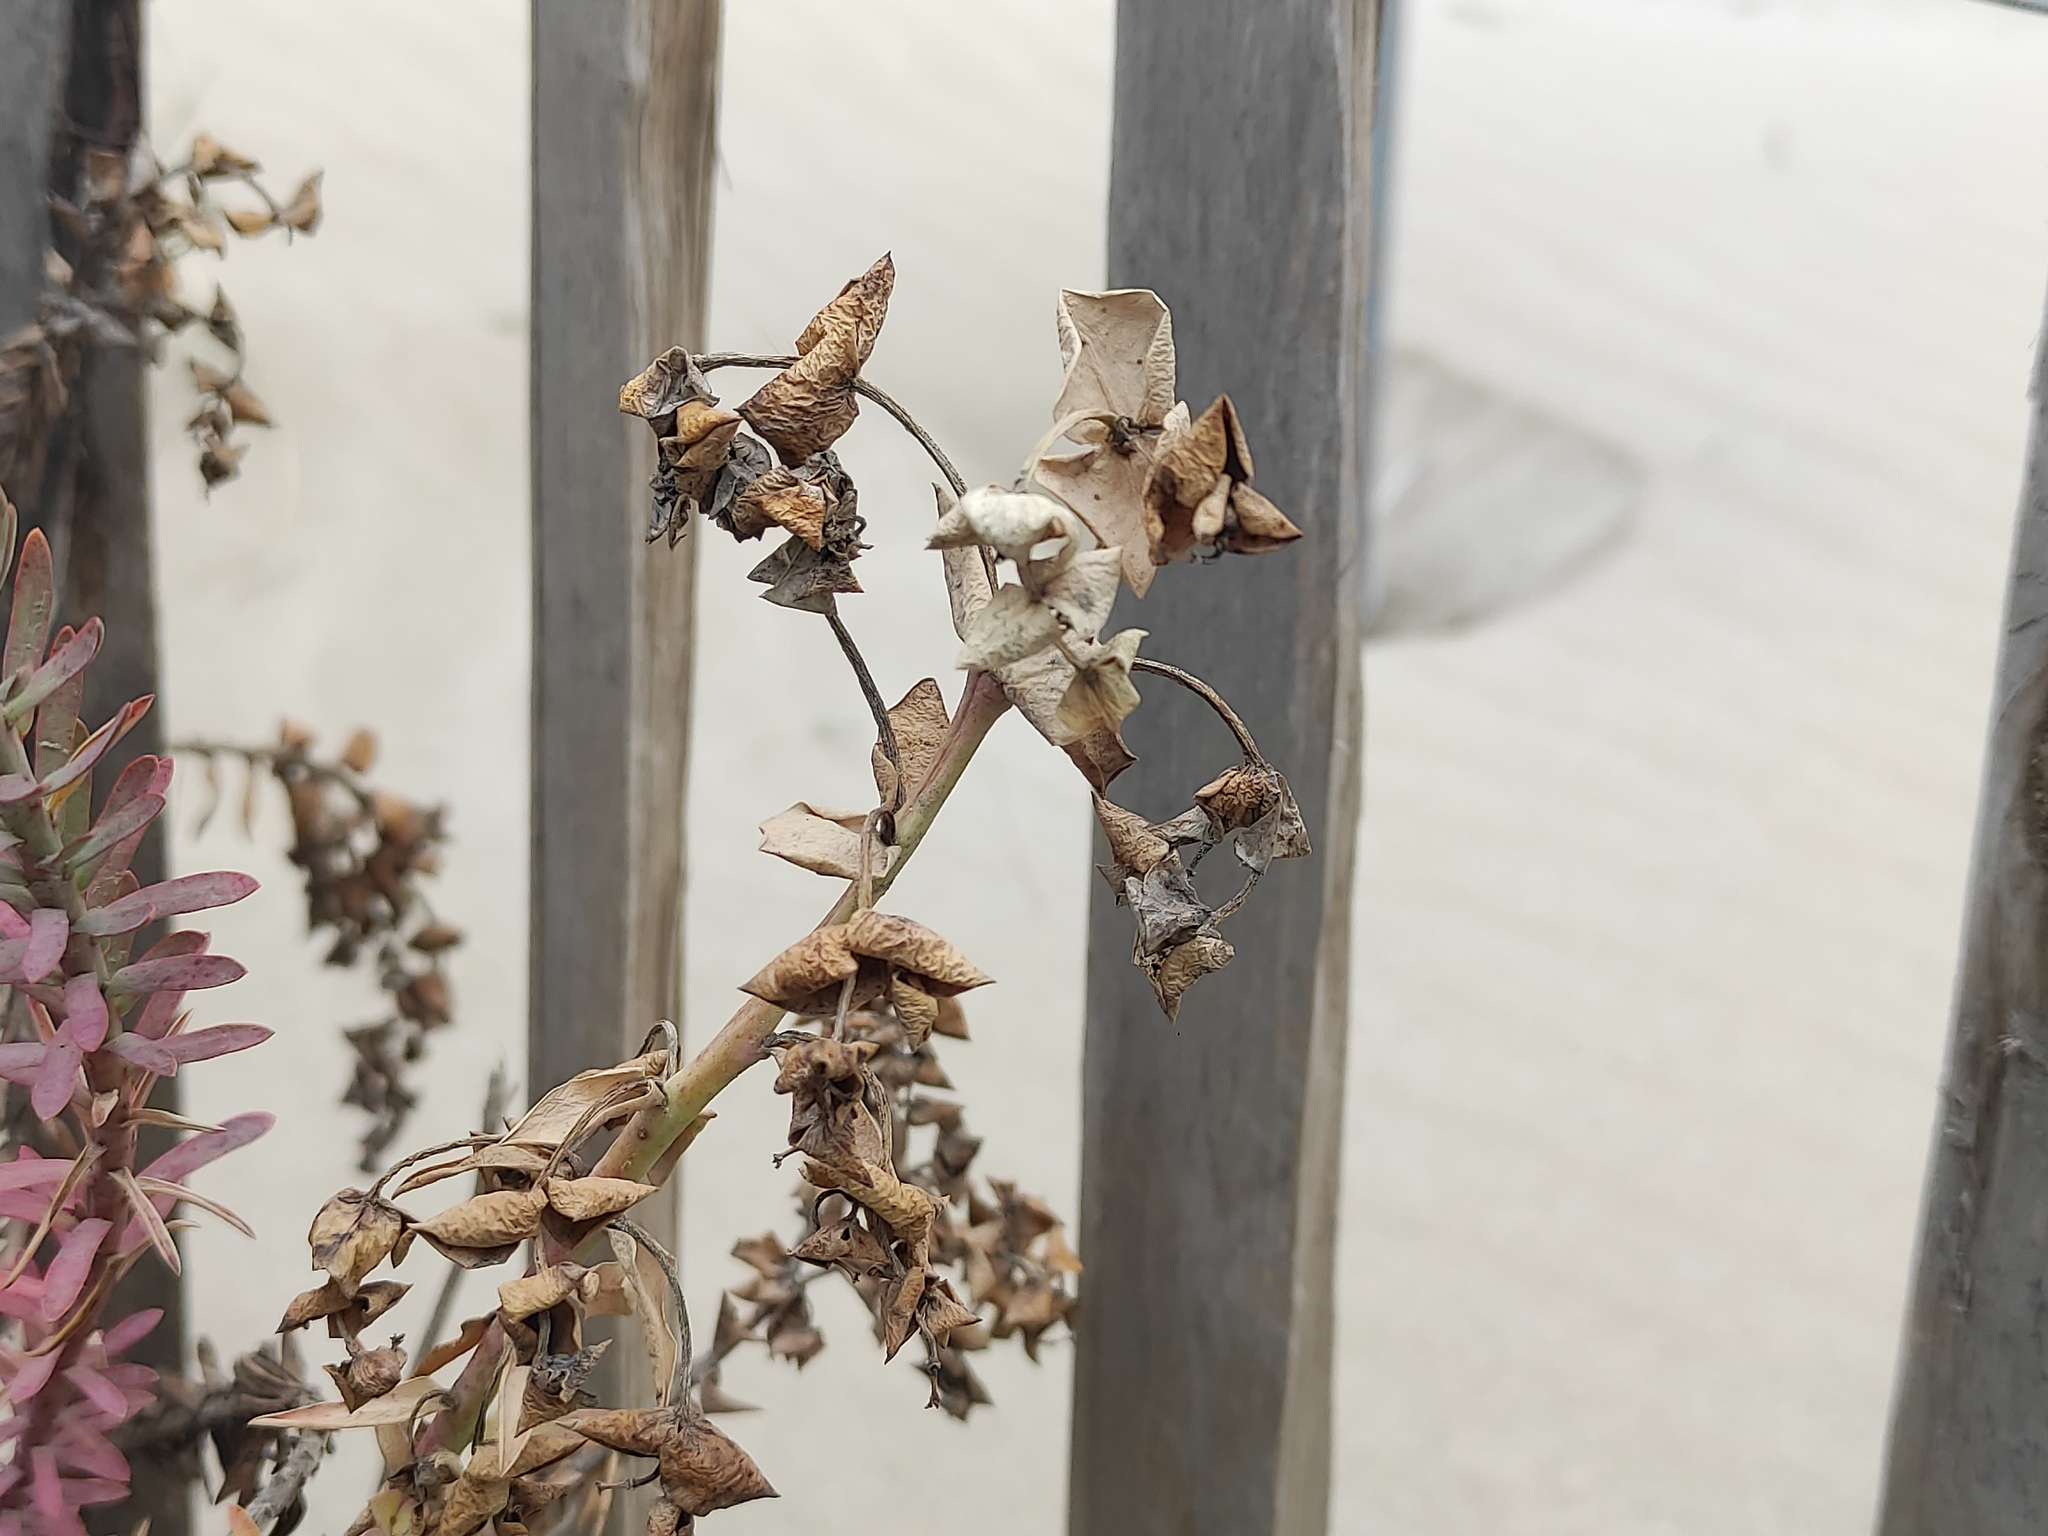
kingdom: Plantae
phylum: Tracheophyta
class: Magnoliopsida
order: Malpighiales
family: Euphorbiaceae
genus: Euphorbia
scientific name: Euphorbia paralias
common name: Sea spurge
